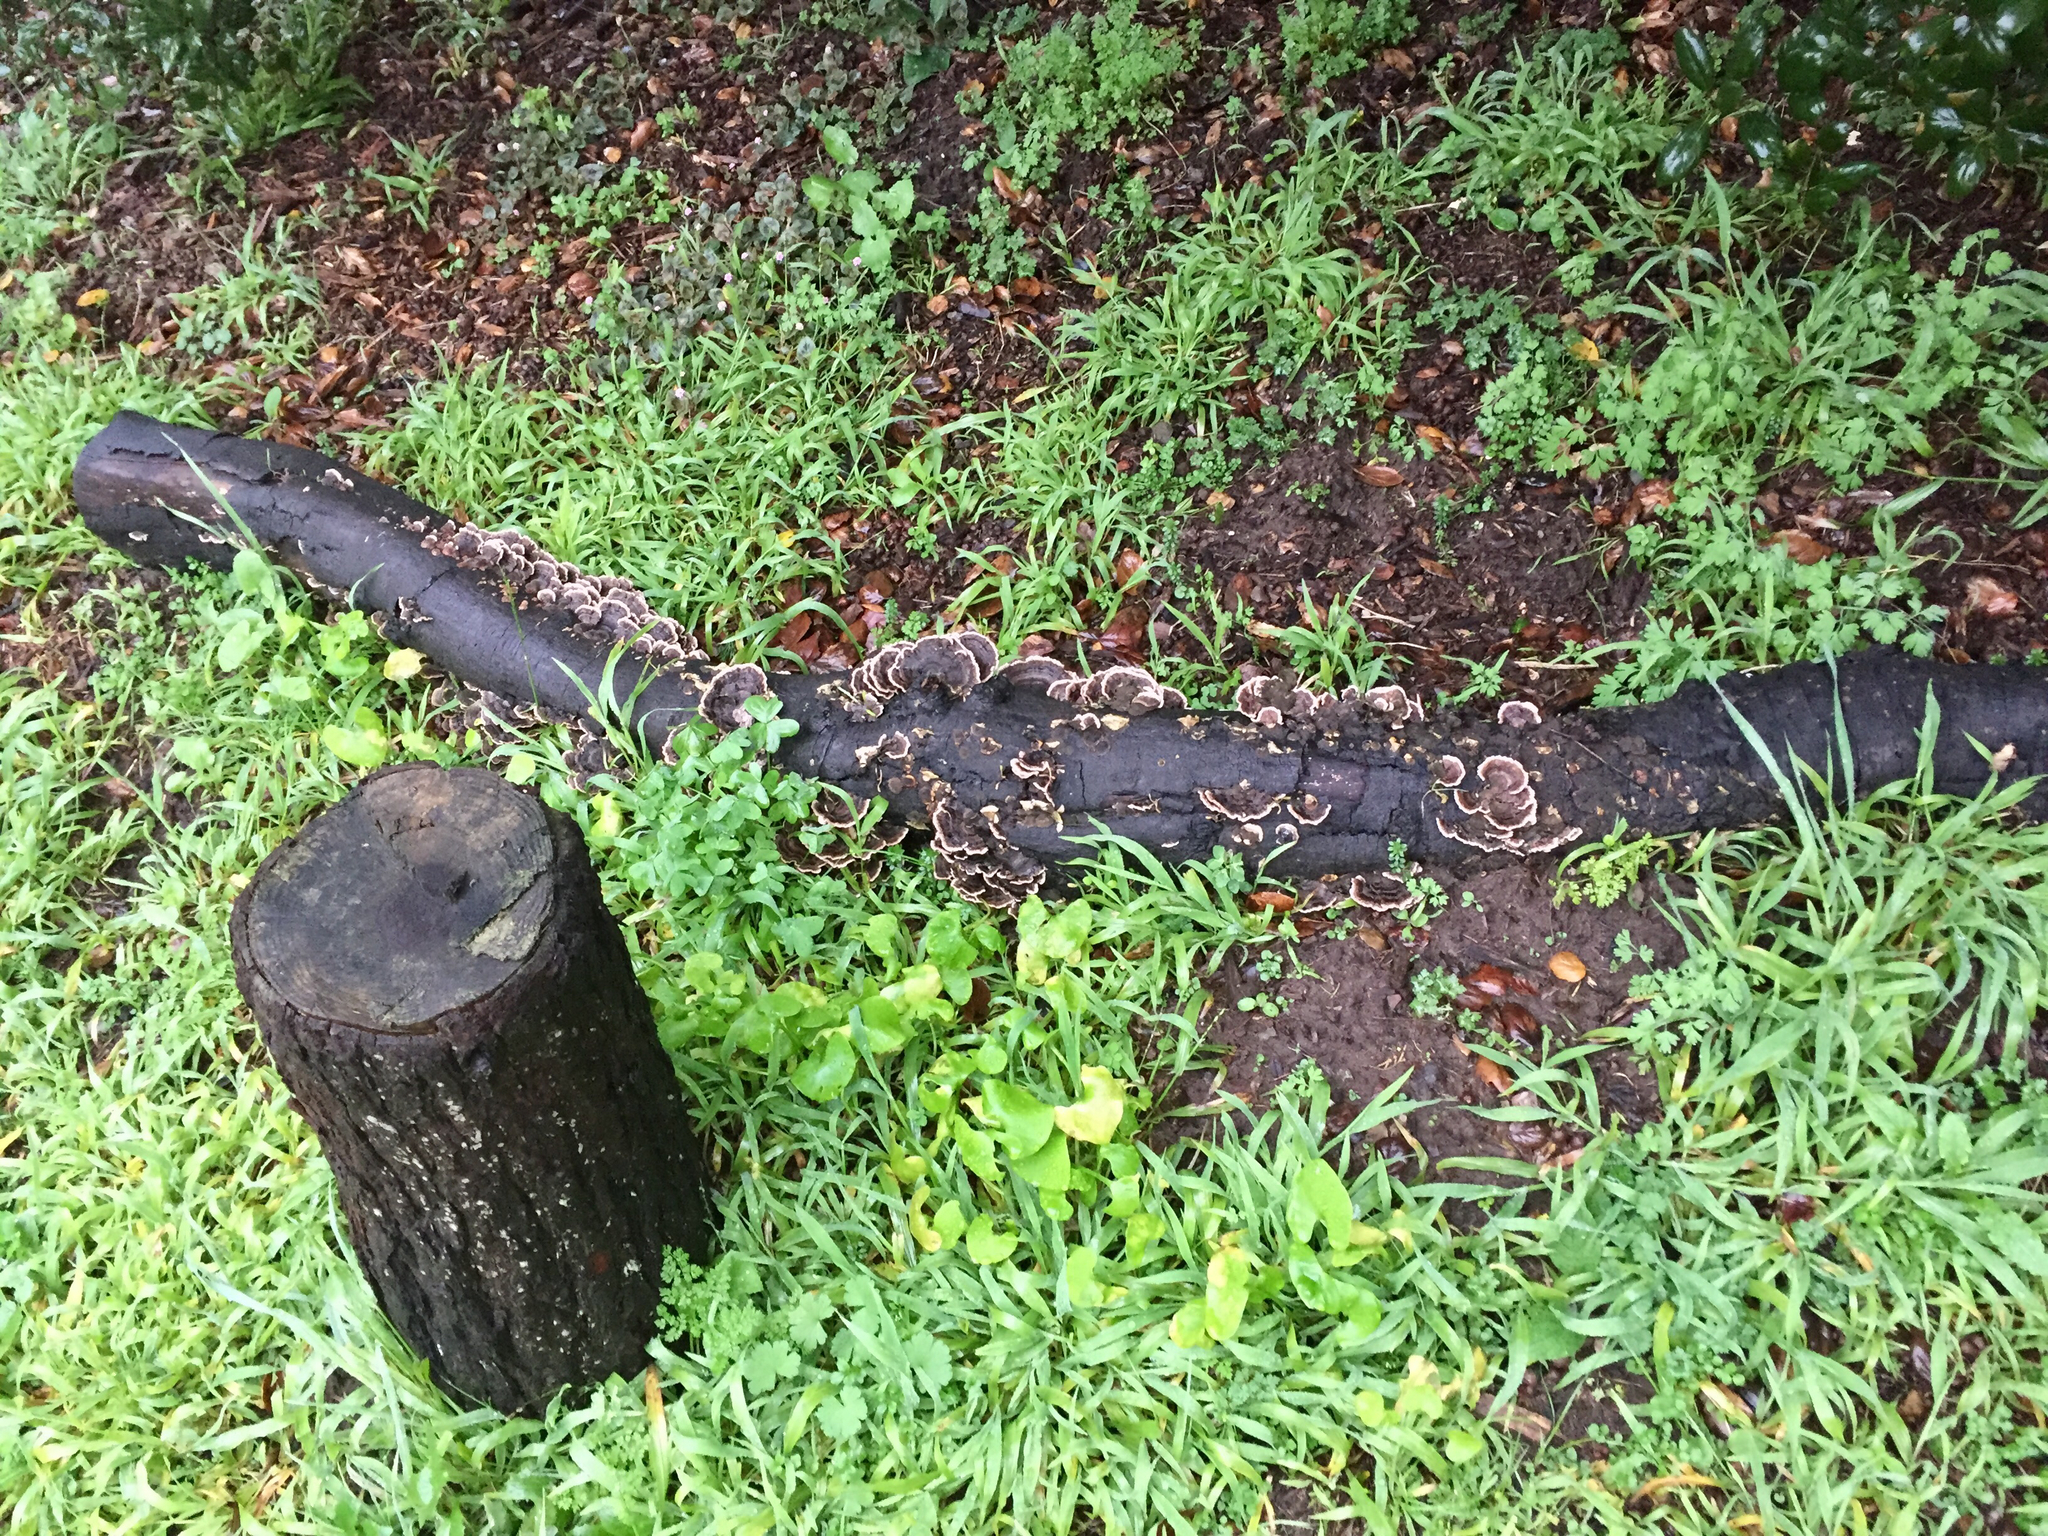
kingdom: Fungi
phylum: Basidiomycota
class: Agaricomycetes
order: Polyporales
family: Polyporaceae
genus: Trametes
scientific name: Trametes versicolor
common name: Turkeytail
